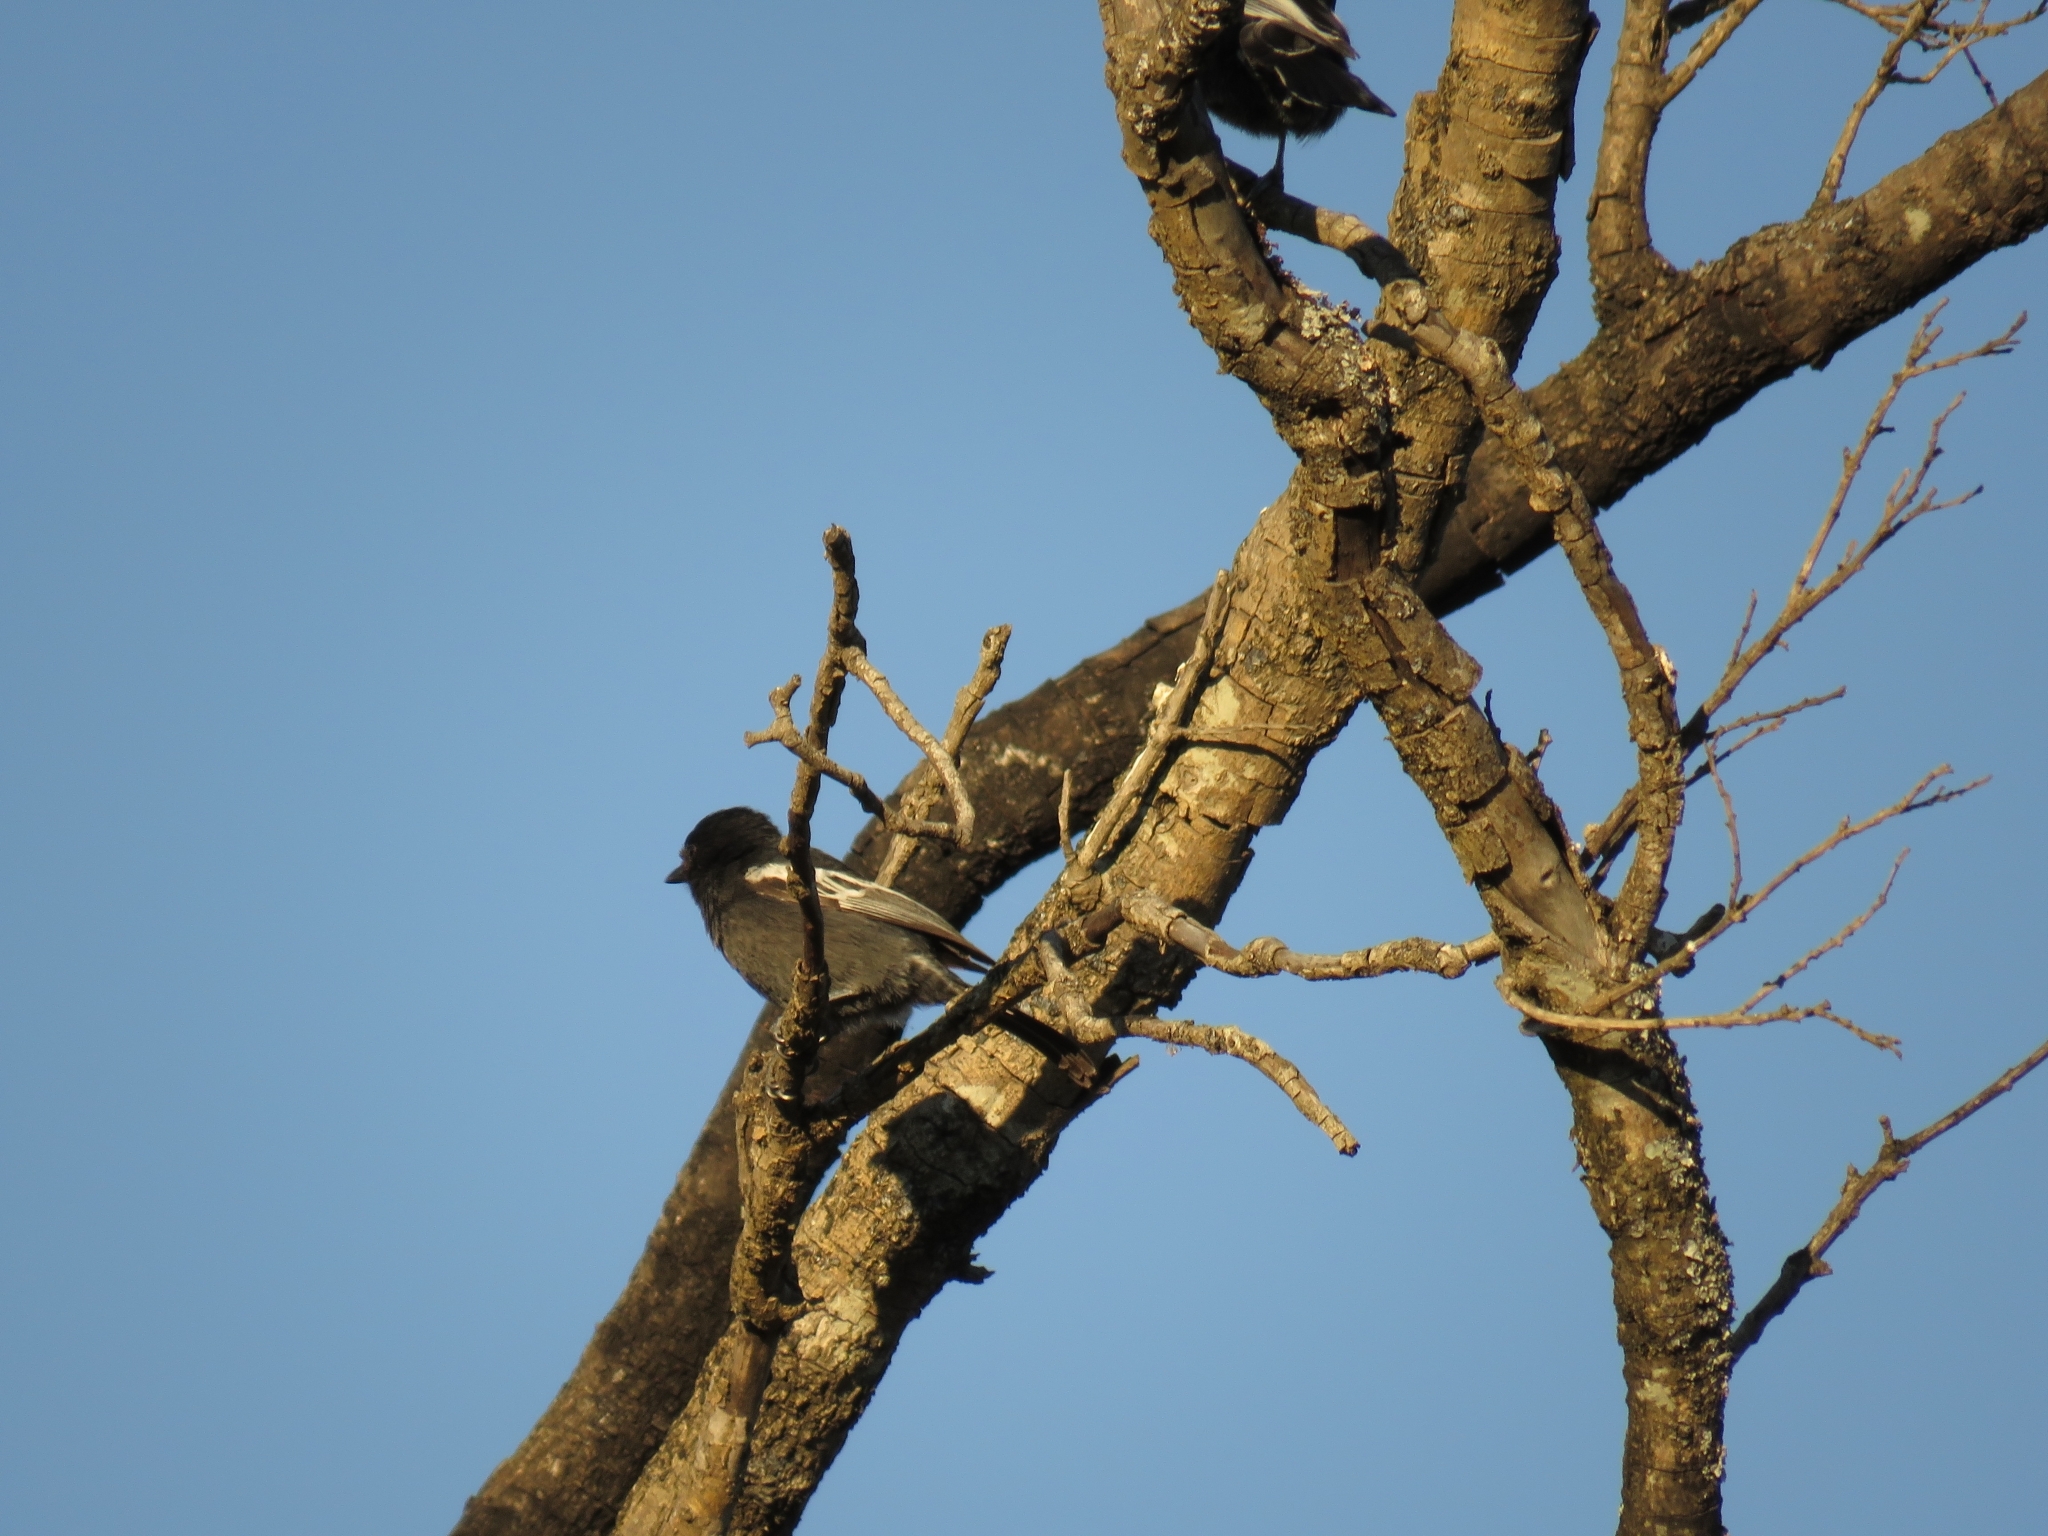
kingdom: Animalia
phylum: Chordata
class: Aves
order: Passeriformes
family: Paridae
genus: Parus
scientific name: Parus niger
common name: Southern black tit
